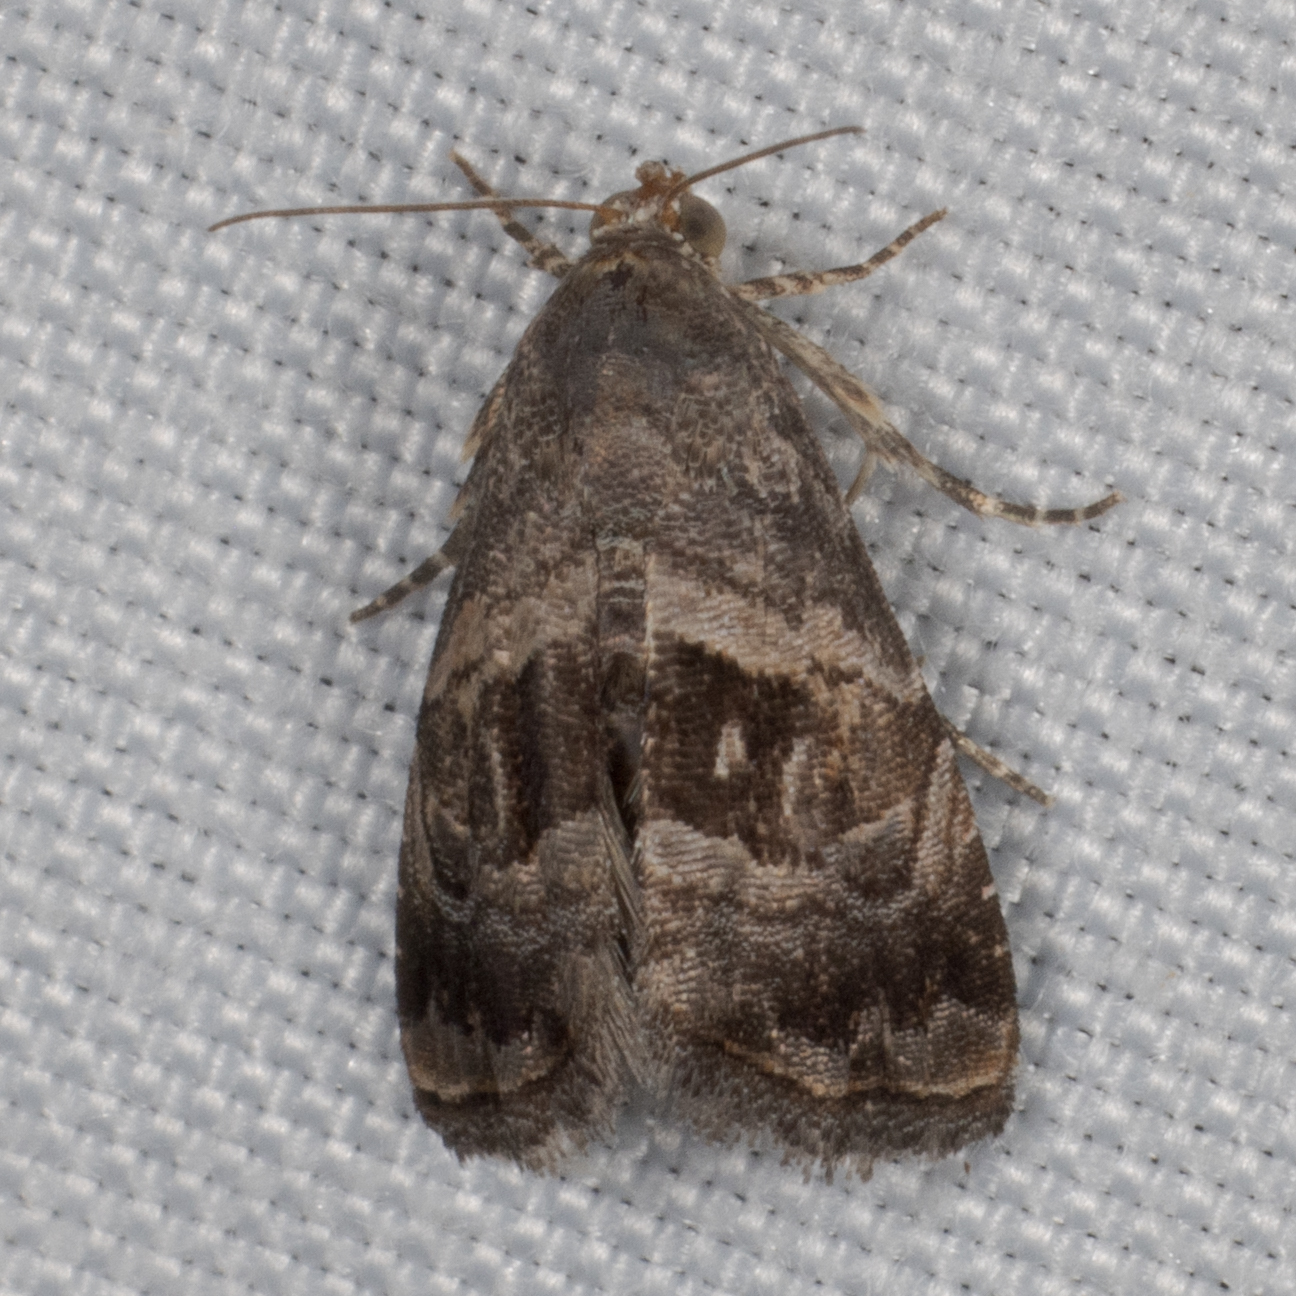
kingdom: Animalia
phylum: Arthropoda
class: Insecta
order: Lepidoptera
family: Noctuidae
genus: Tripudia
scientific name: Tripudia quadrifera
